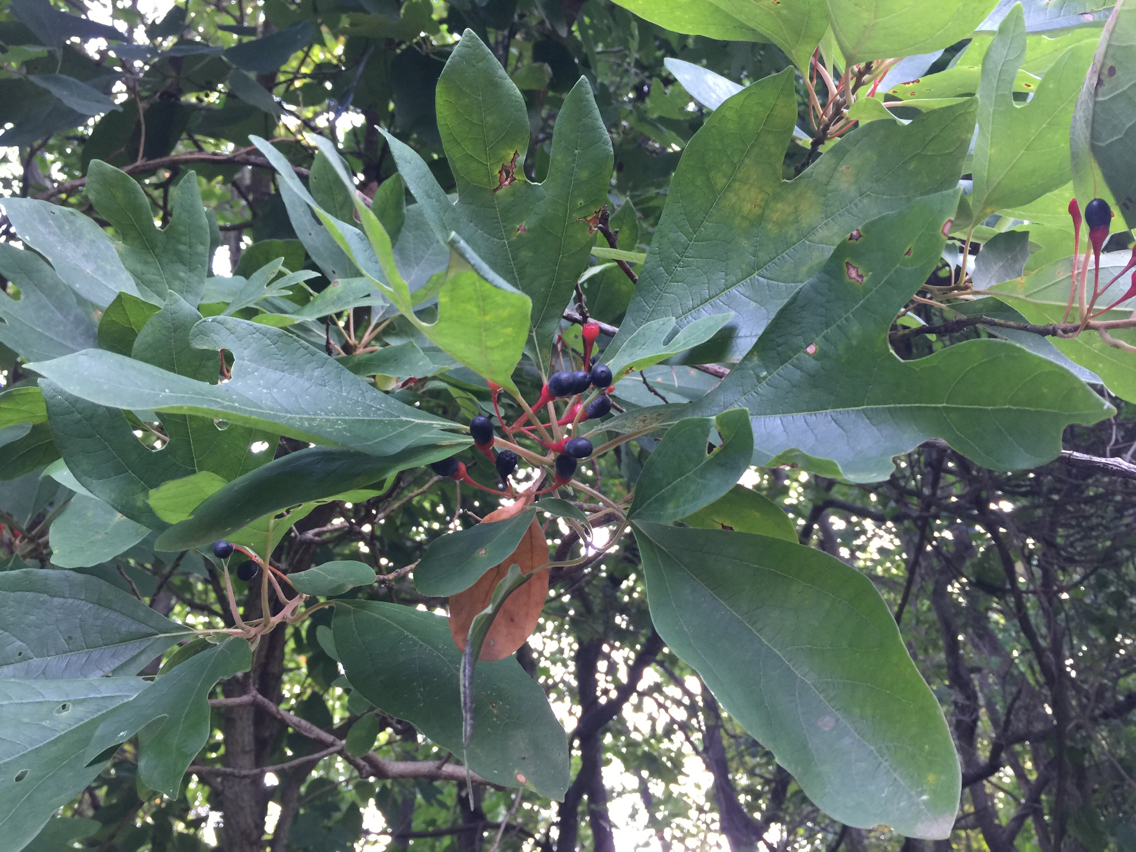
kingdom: Plantae
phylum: Tracheophyta
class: Magnoliopsida
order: Laurales
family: Lauraceae
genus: Sassafras
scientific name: Sassafras albidum
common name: Sassafras
